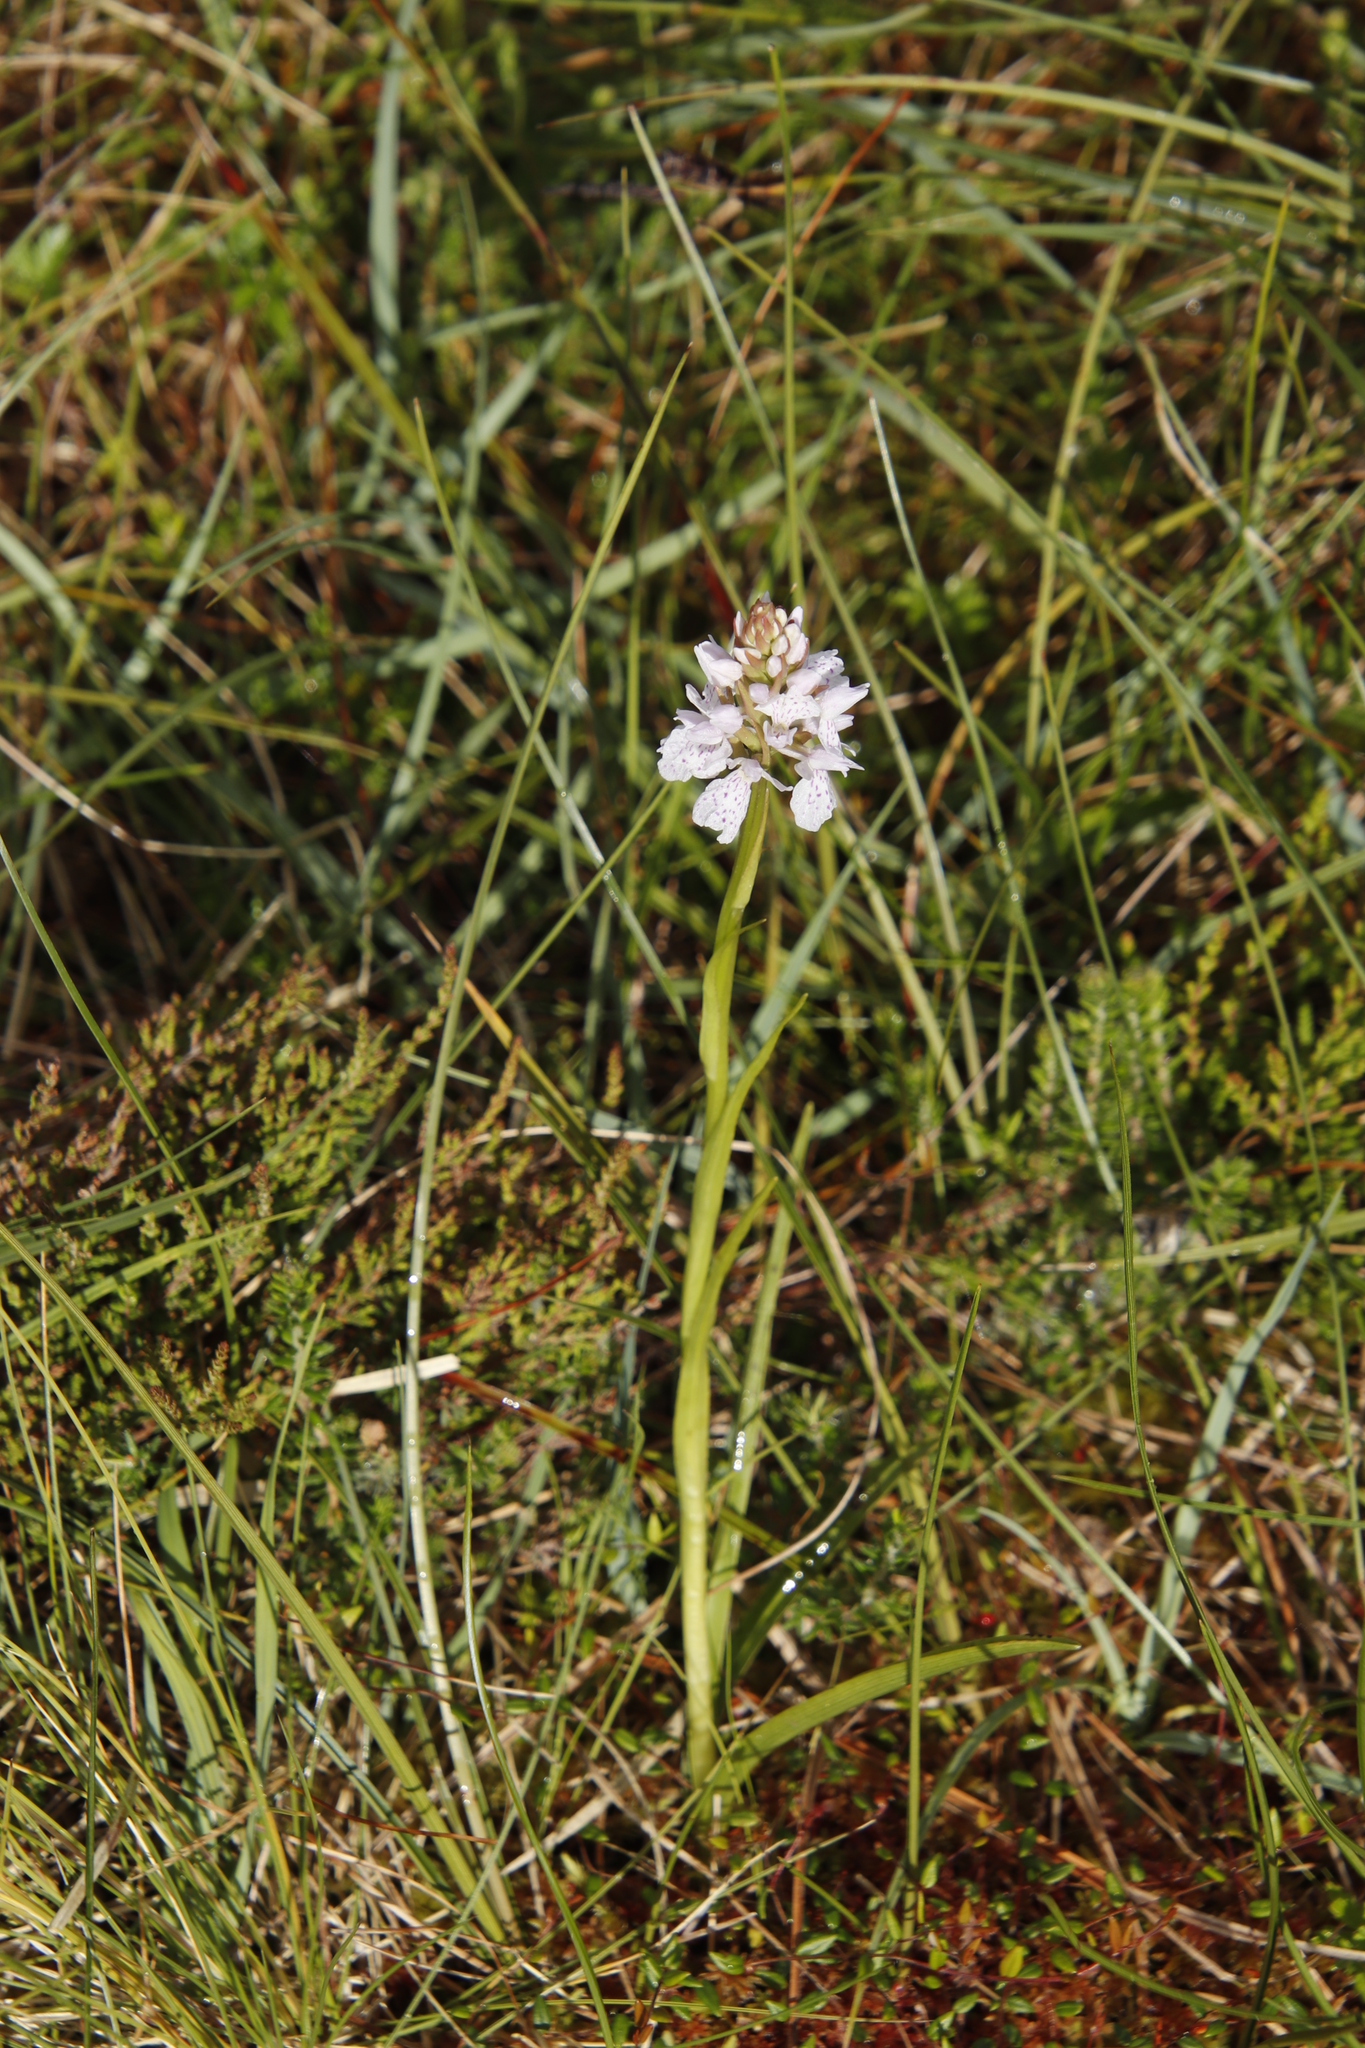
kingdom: Plantae
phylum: Tracheophyta
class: Liliopsida
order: Asparagales
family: Orchidaceae
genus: Dactylorhiza
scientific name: Dactylorhiza maculata
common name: Heath spotted-orchid
